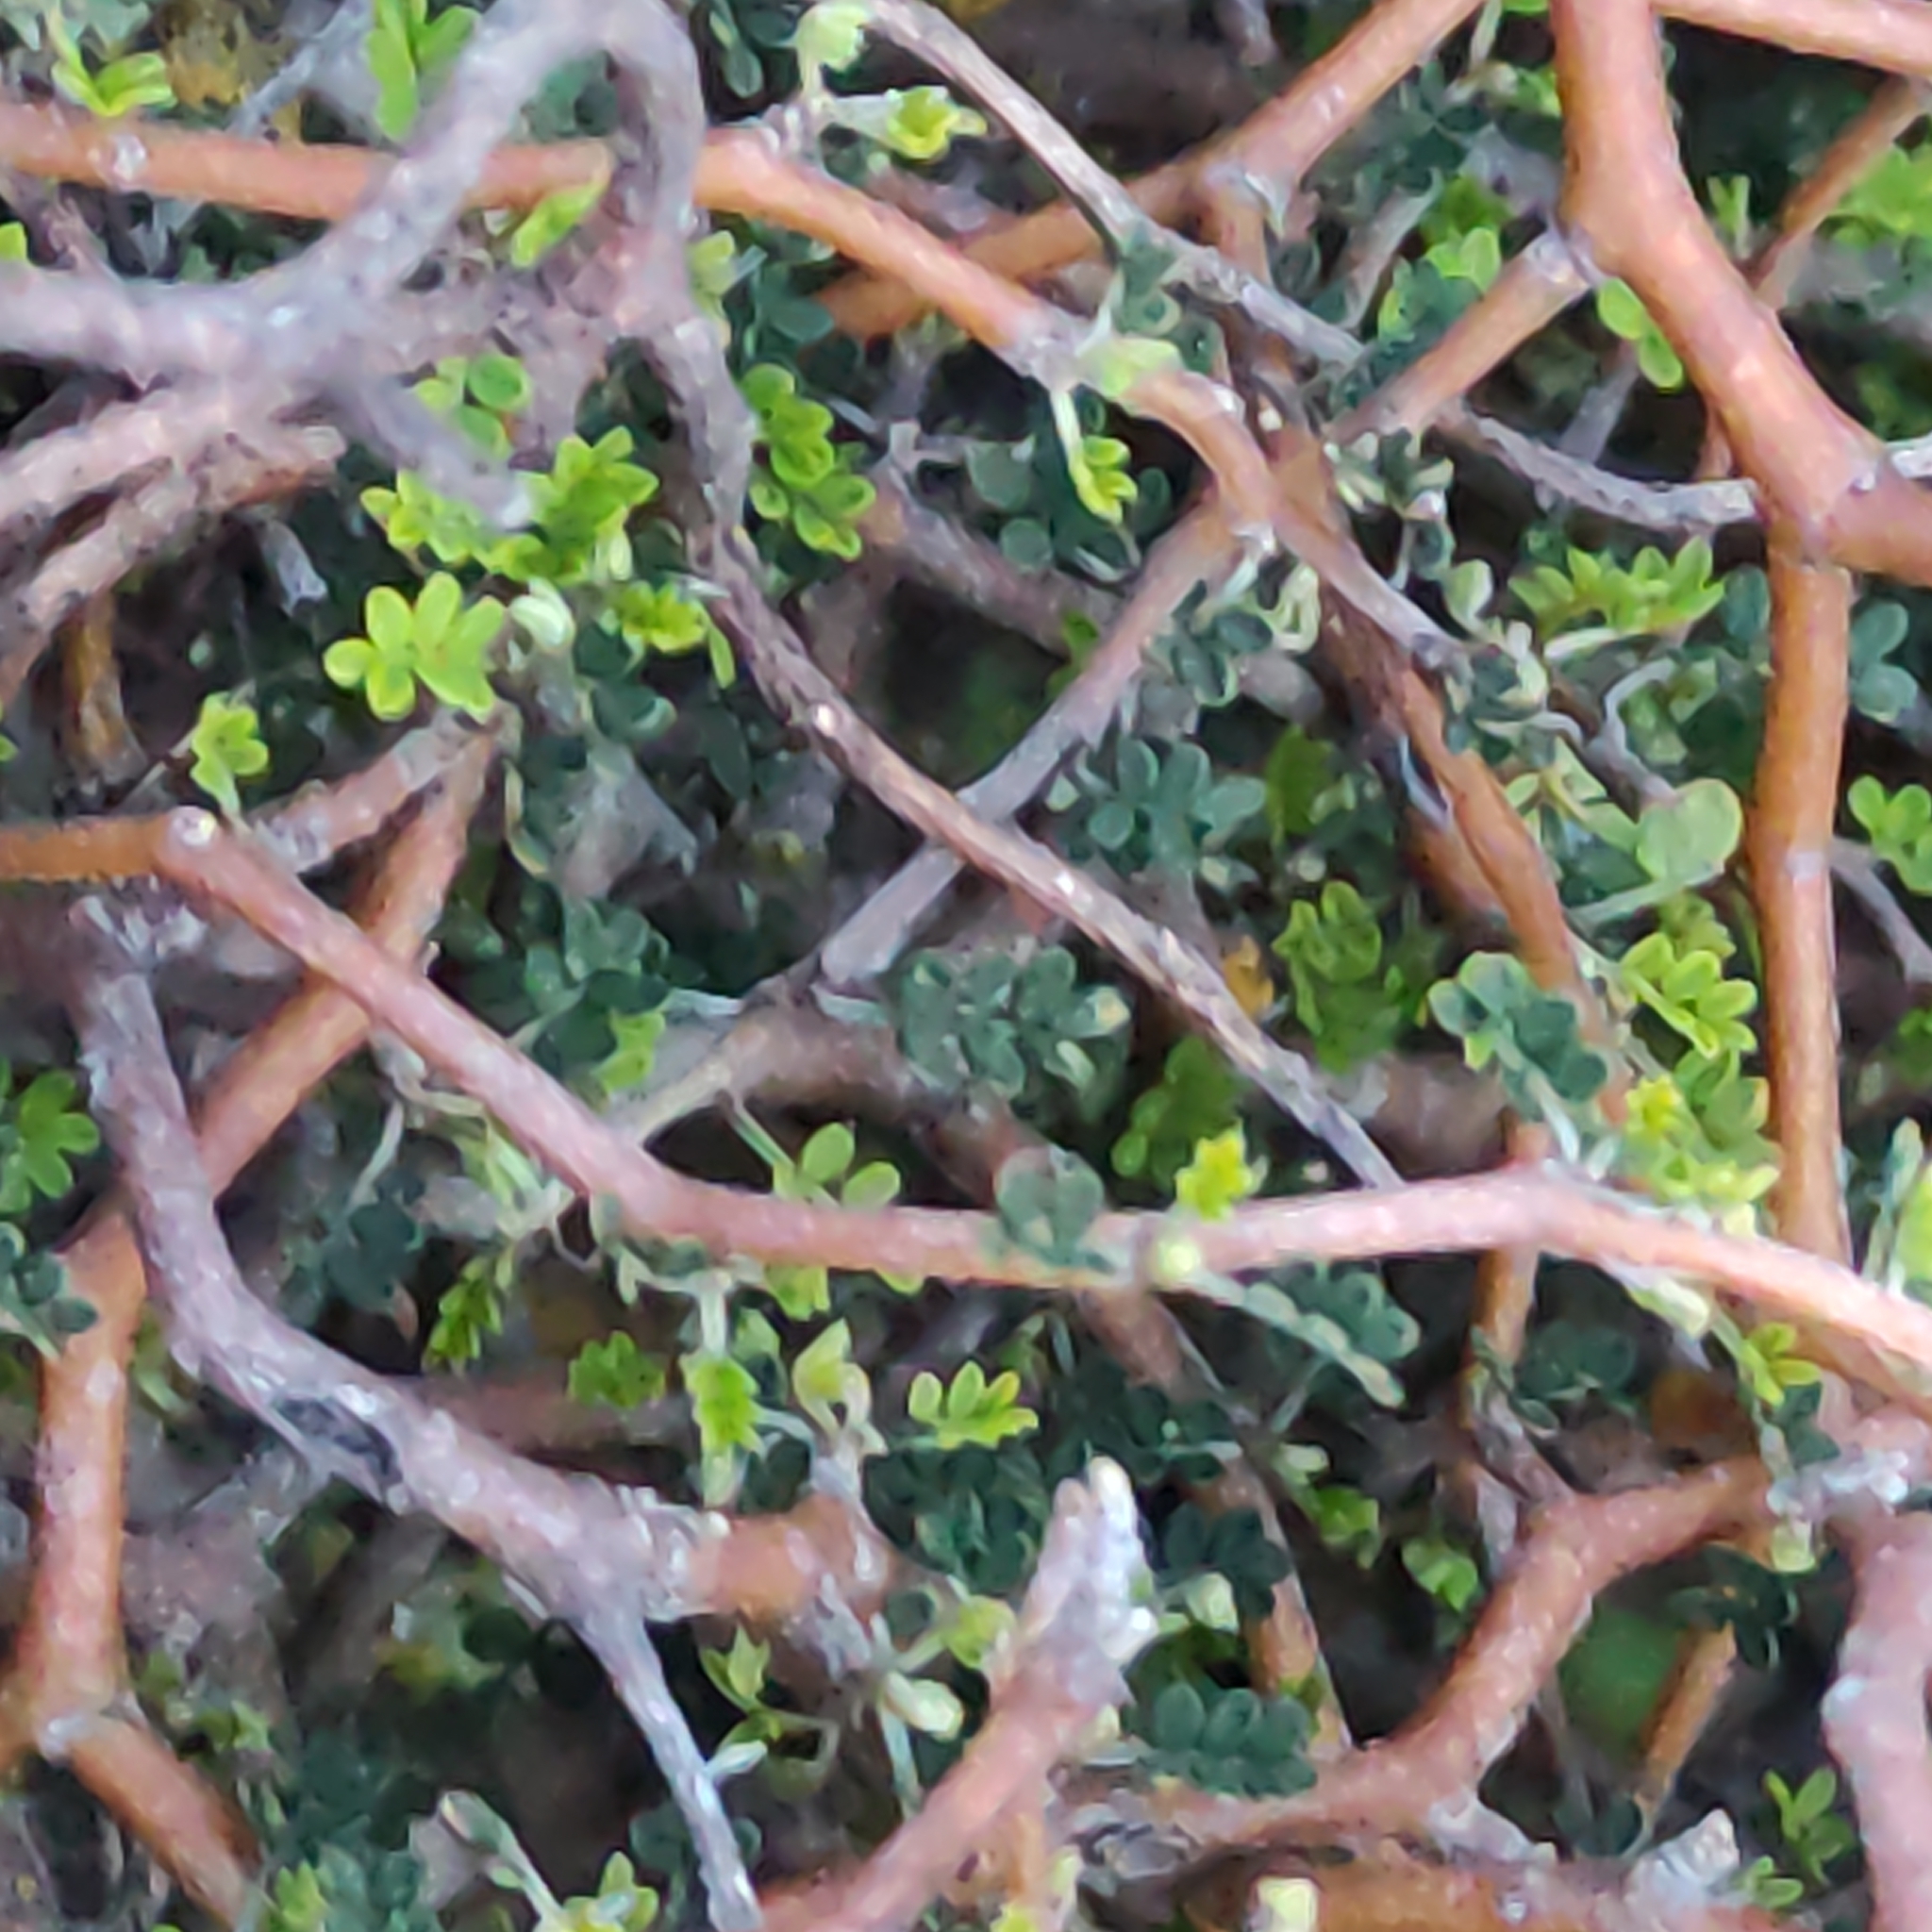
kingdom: Plantae
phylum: Tracheophyta
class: Magnoliopsida
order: Fabales
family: Fabaceae
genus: Sophora
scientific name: Sophora prostrata
